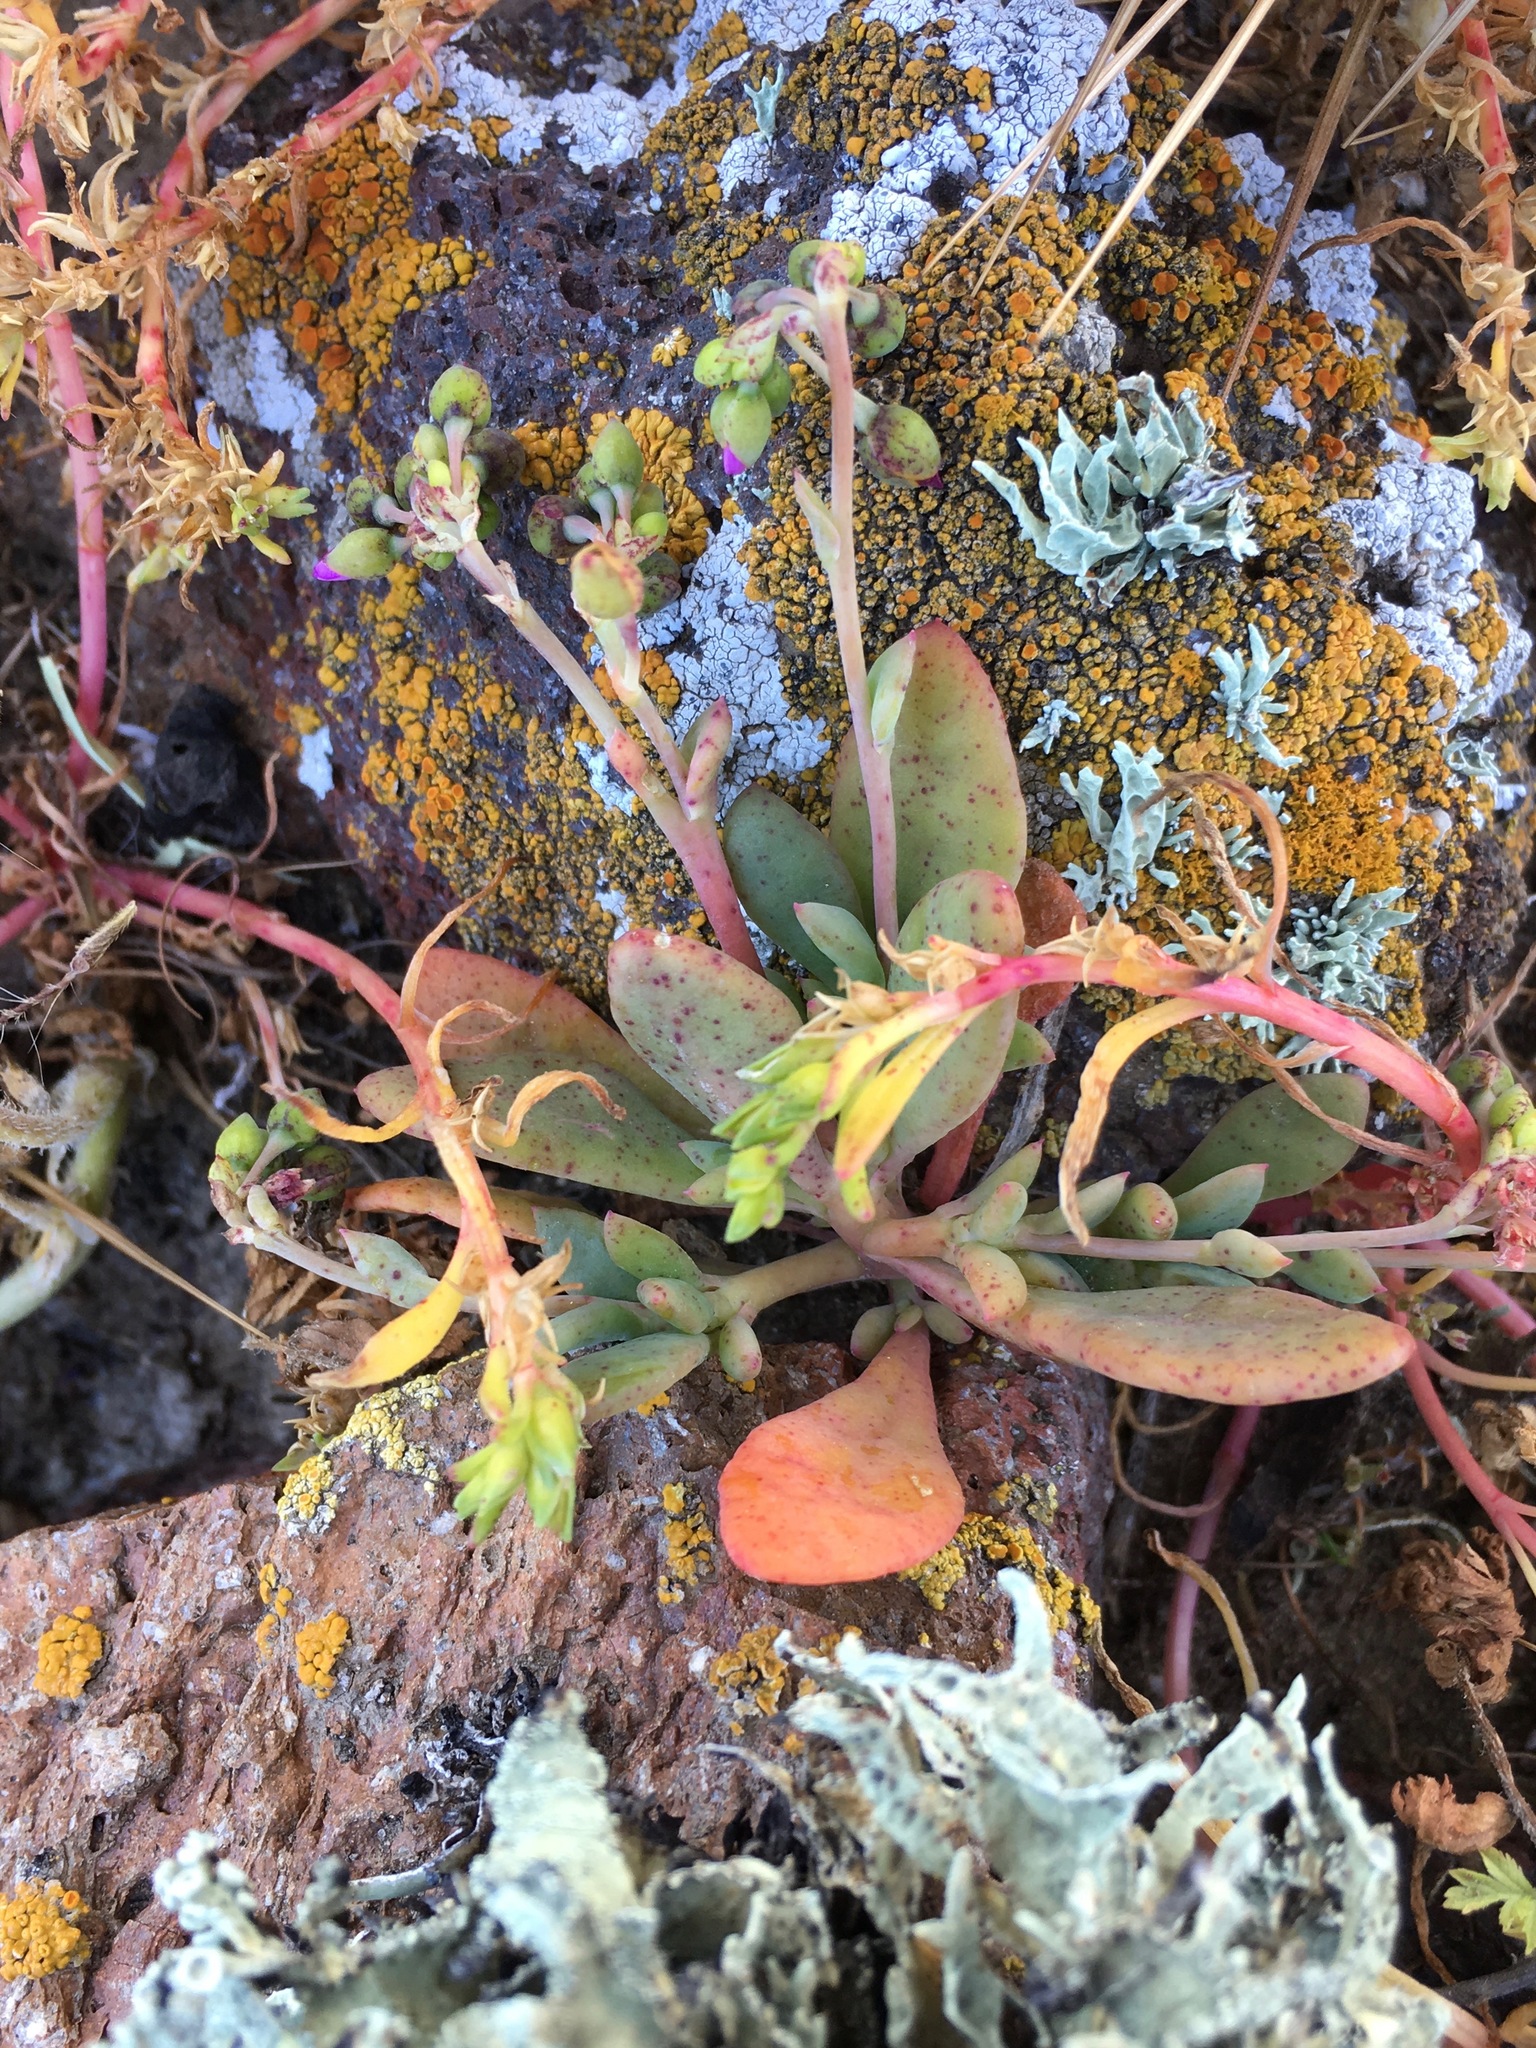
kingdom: Plantae
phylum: Tracheophyta
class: Magnoliopsida
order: Caryophyllales
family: Montiaceae
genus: Cistanthe
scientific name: Cistanthe maritima
